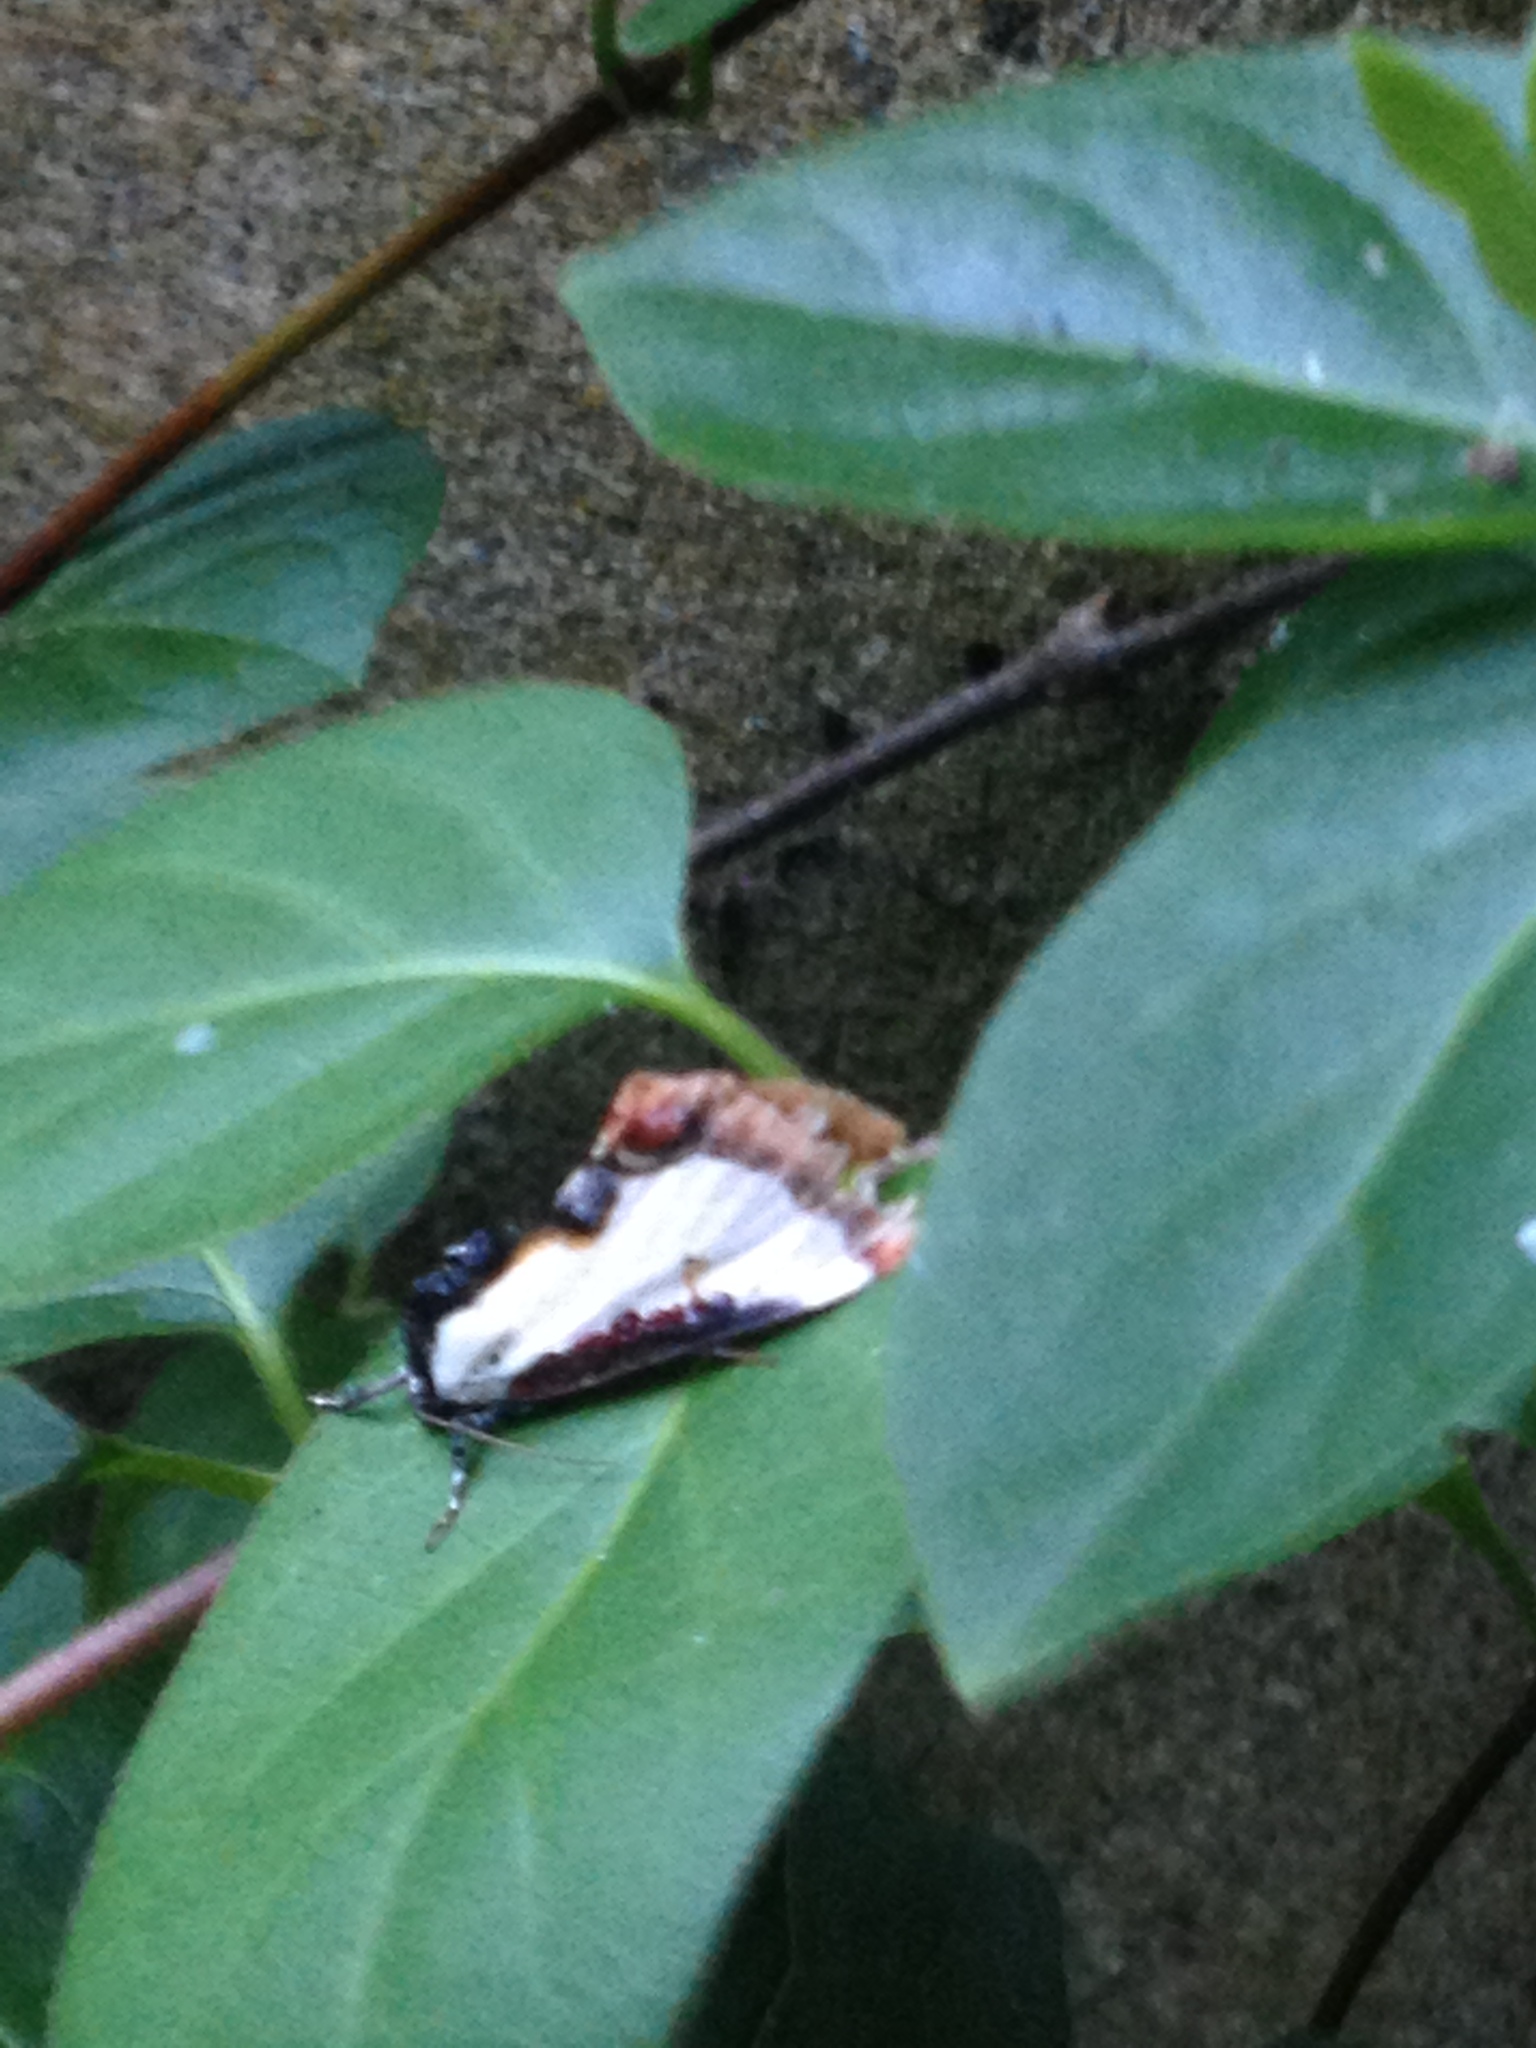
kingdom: Animalia
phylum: Arthropoda
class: Insecta
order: Lepidoptera
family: Noctuidae
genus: Eudryas
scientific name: Eudryas unio
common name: Pearly wood-nymph
